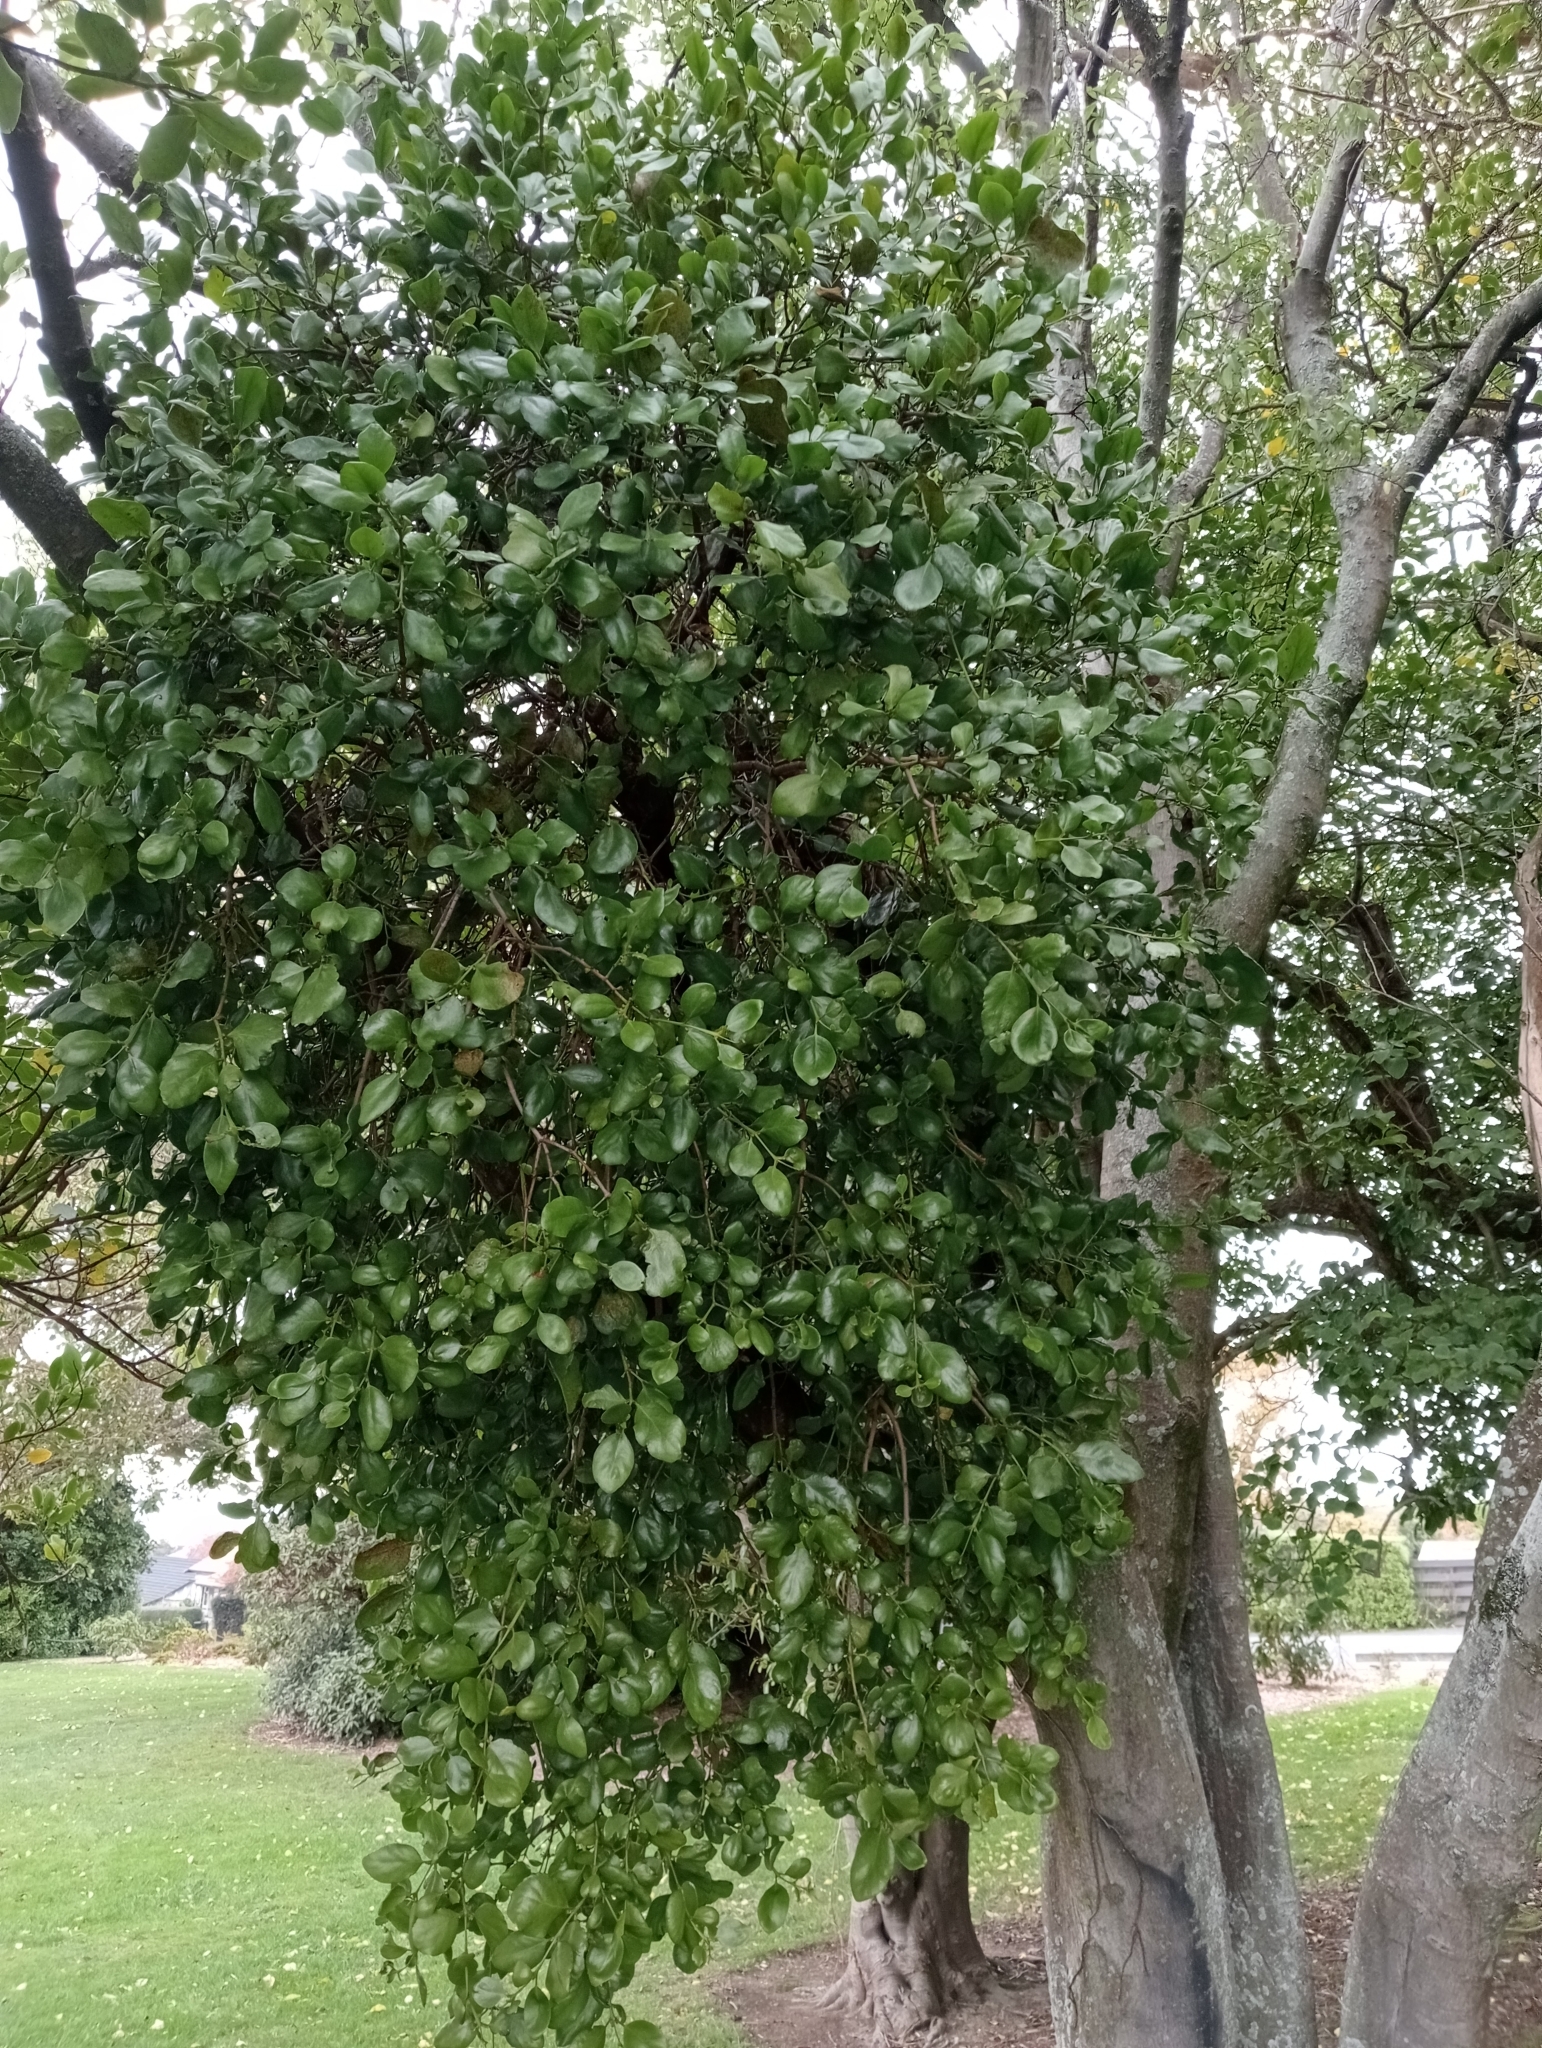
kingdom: Plantae
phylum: Tracheophyta
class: Magnoliopsida
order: Santalales
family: Loranthaceae
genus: Ileostylus
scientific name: Ileostylus micranthus
